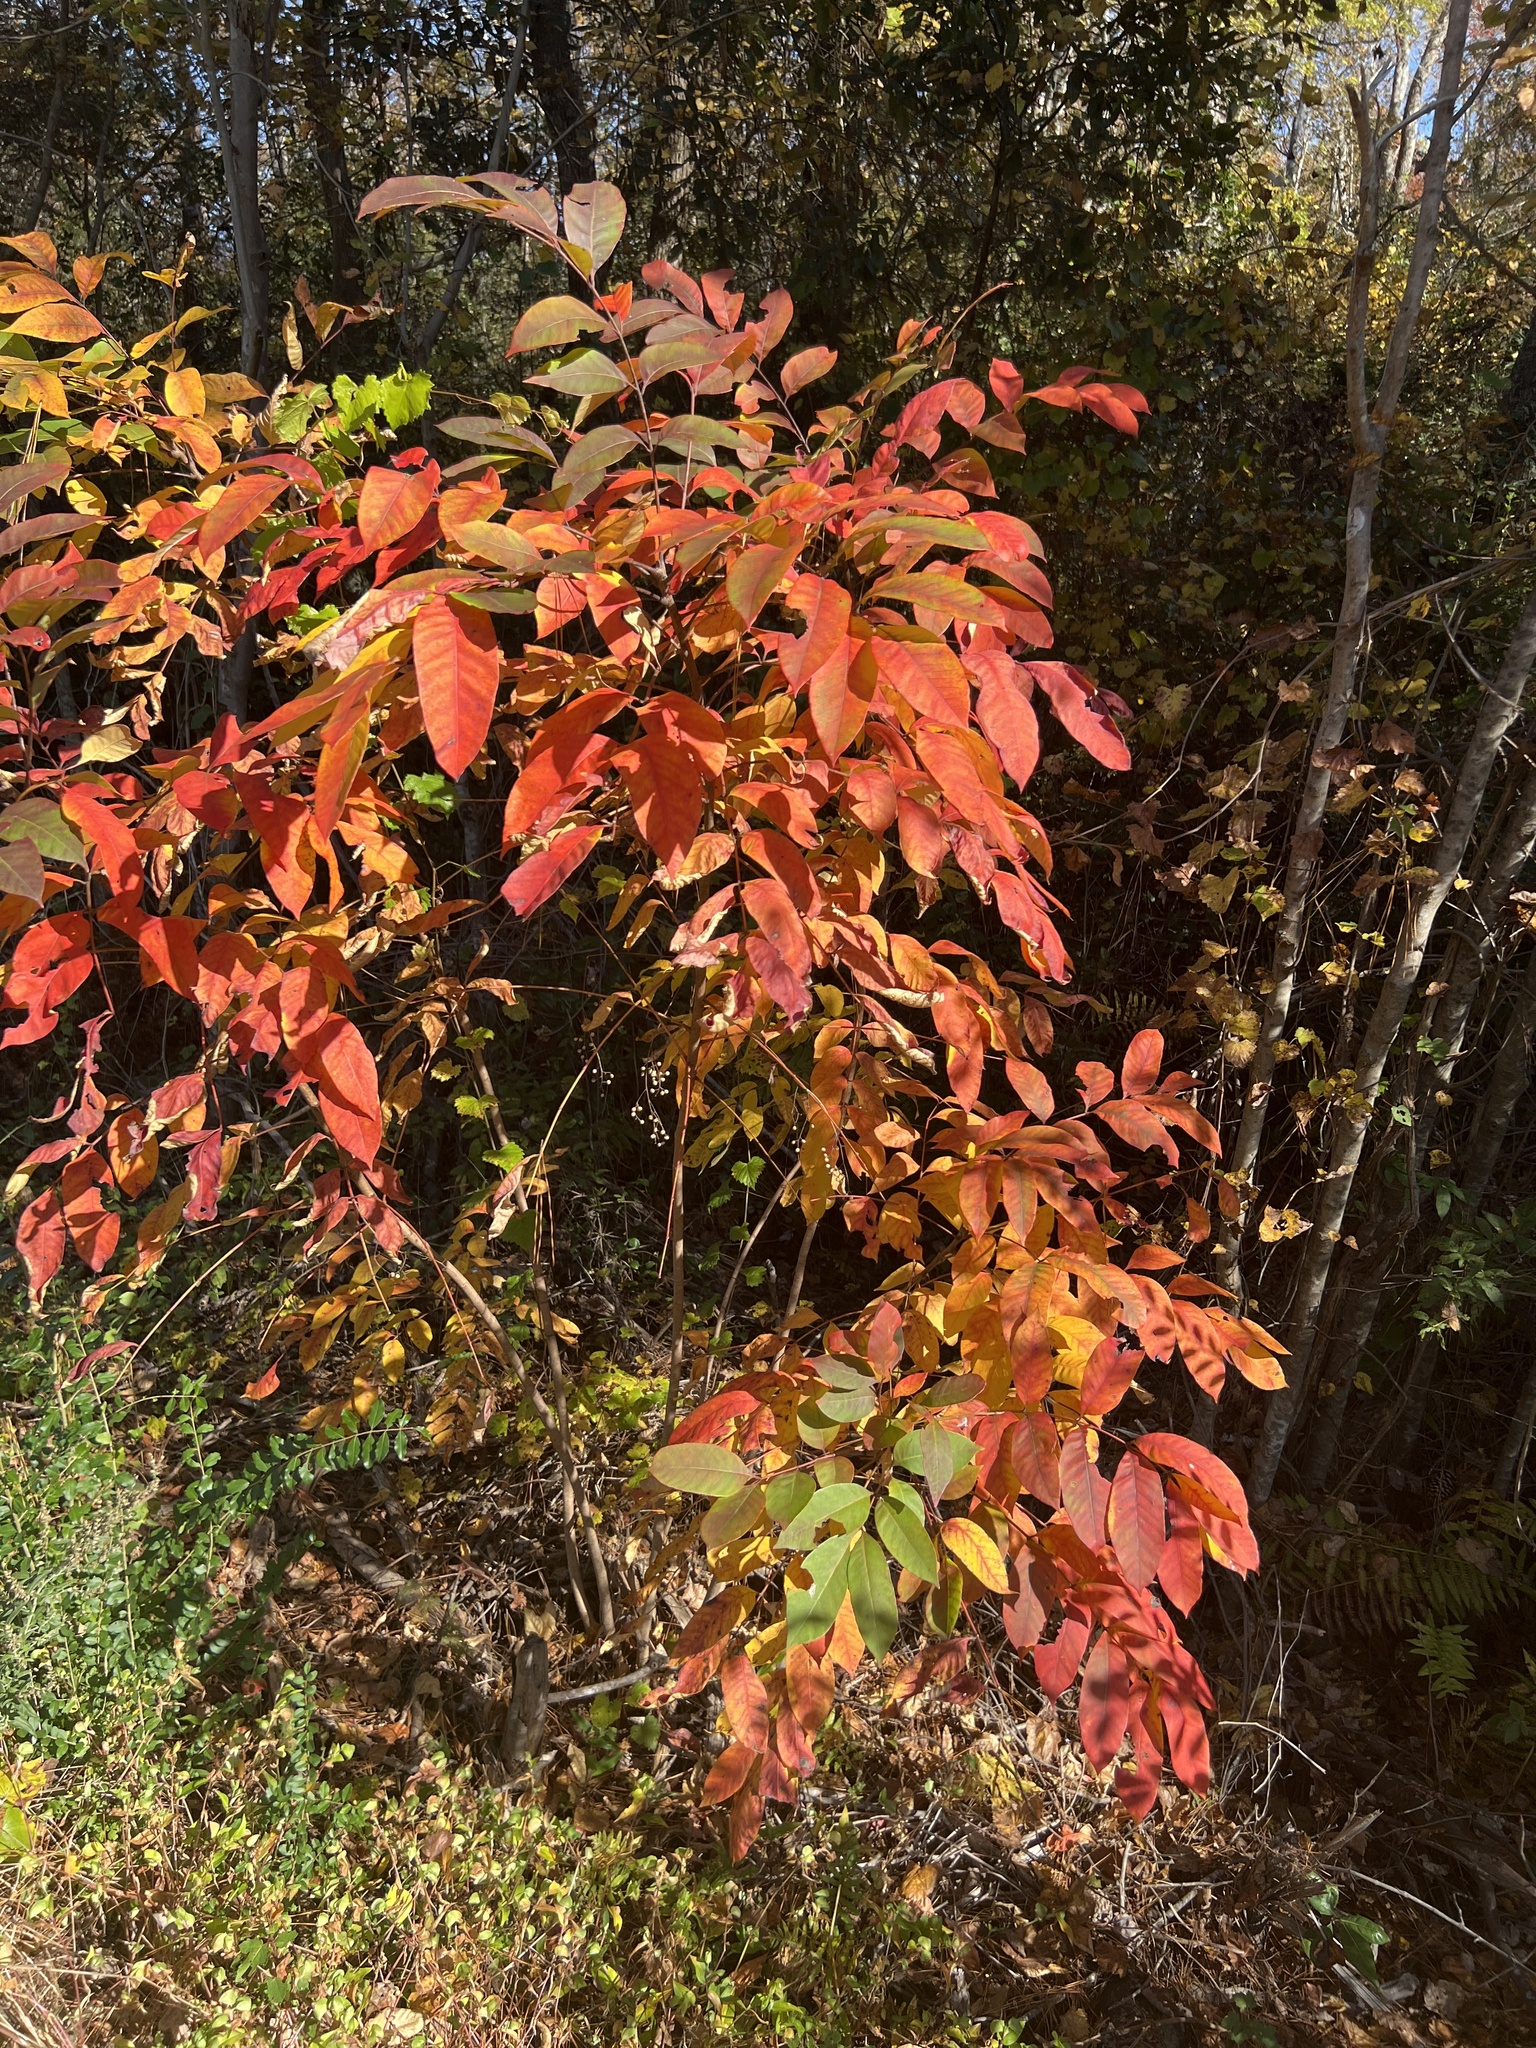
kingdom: Plantae
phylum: Tracheophyta
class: Magnoliopsida
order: Sapindales
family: Anacardiaceae
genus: Toxicodendron
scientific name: Toxicodendron vernix
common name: Poison sumac
